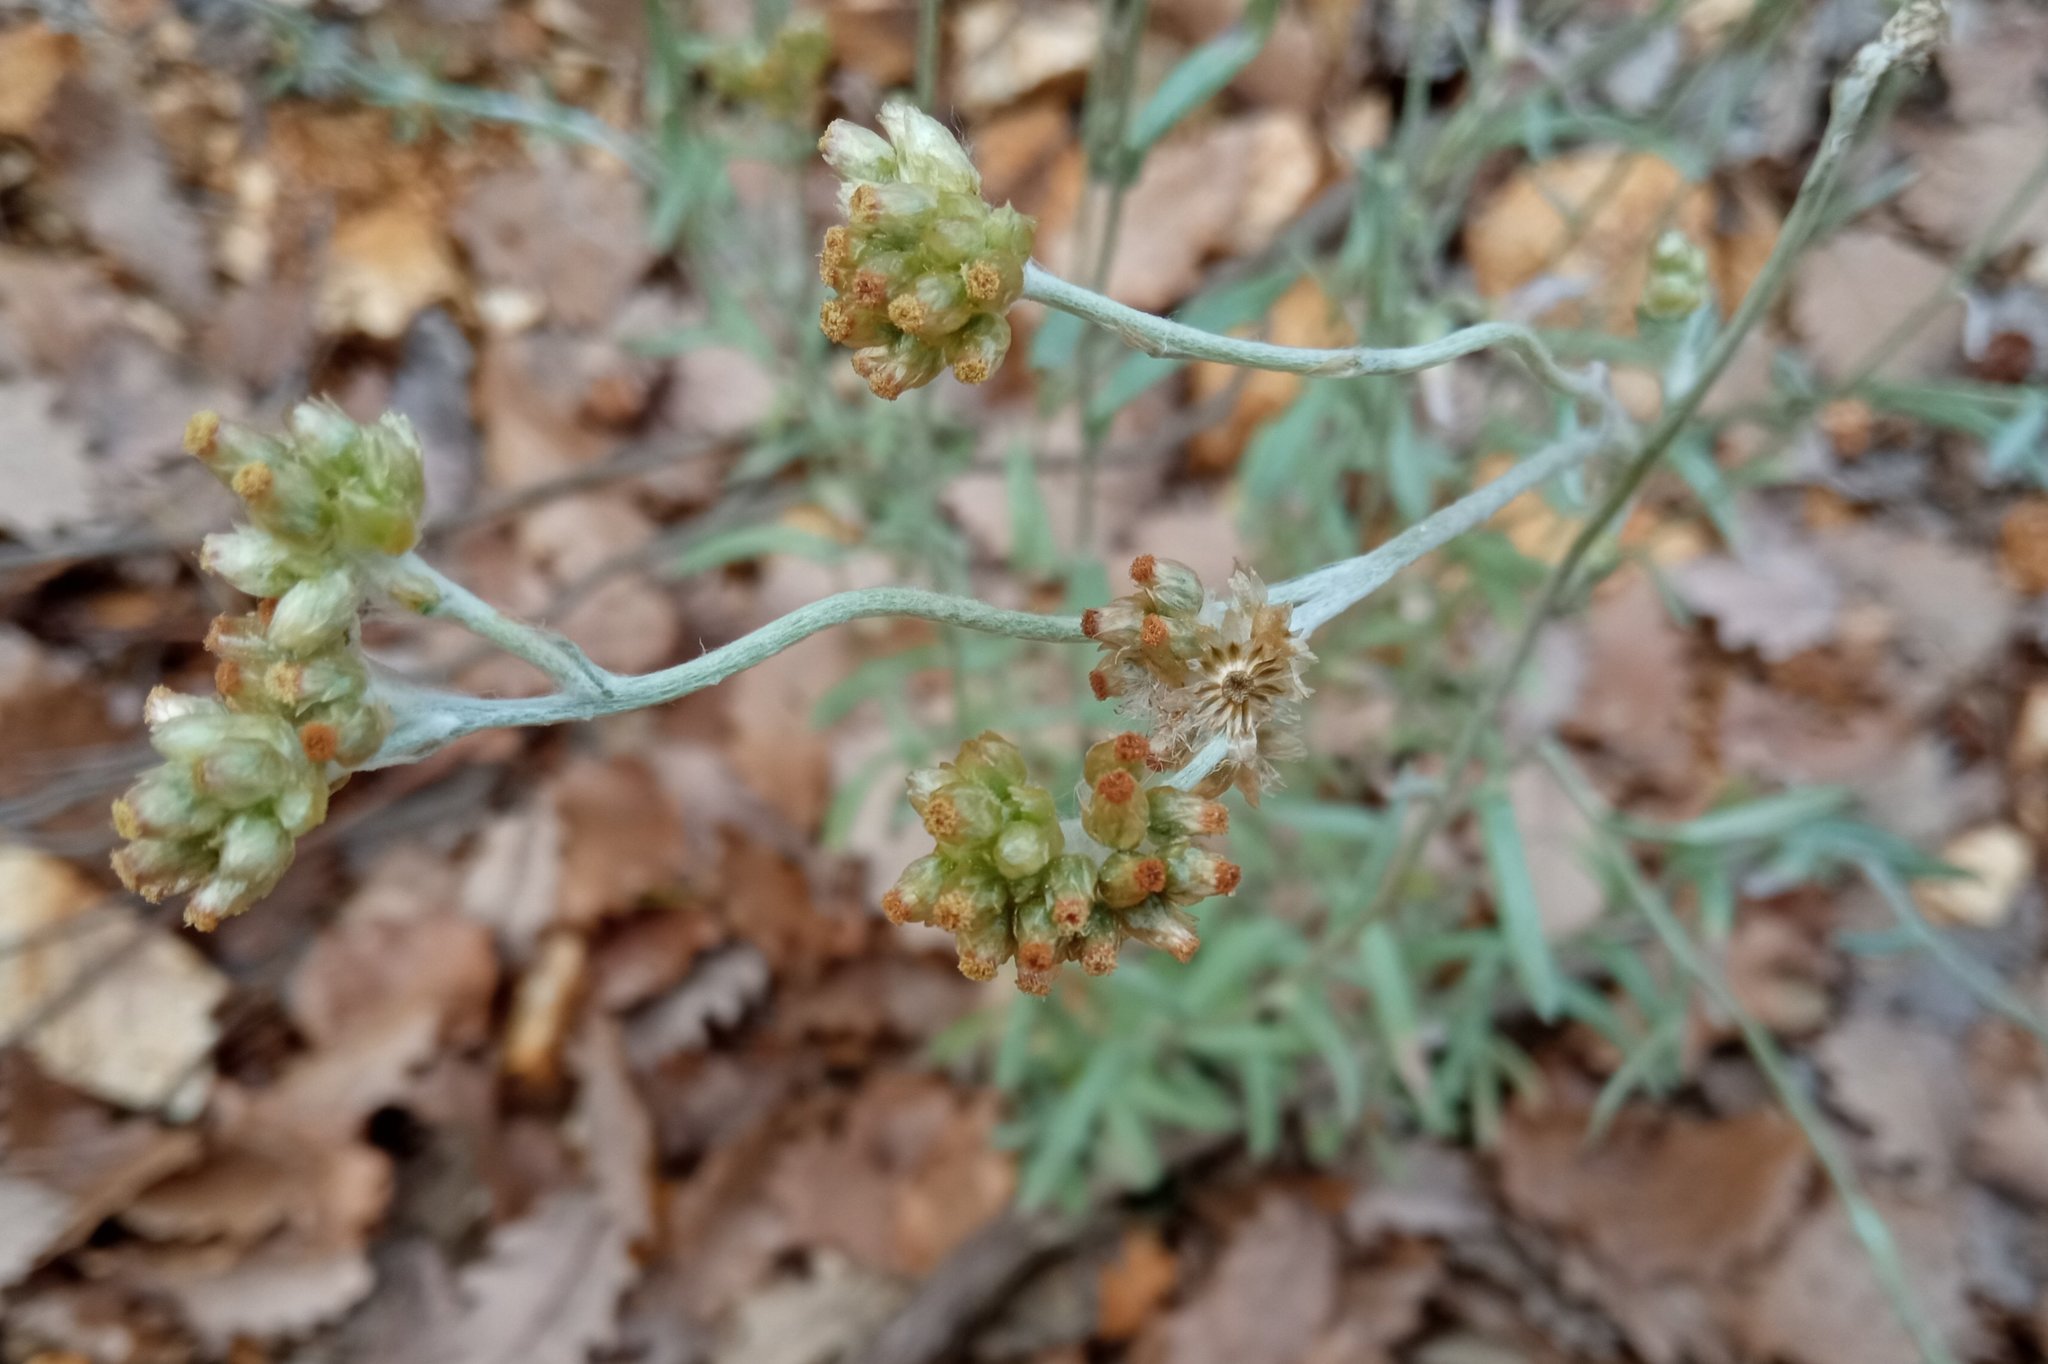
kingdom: Plantae
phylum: Tracheophyta
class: Magnoliopsida
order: Asterales
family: Asteraceae
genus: Helichrysum
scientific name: Helichrysum luteoalbum
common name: Daisy
